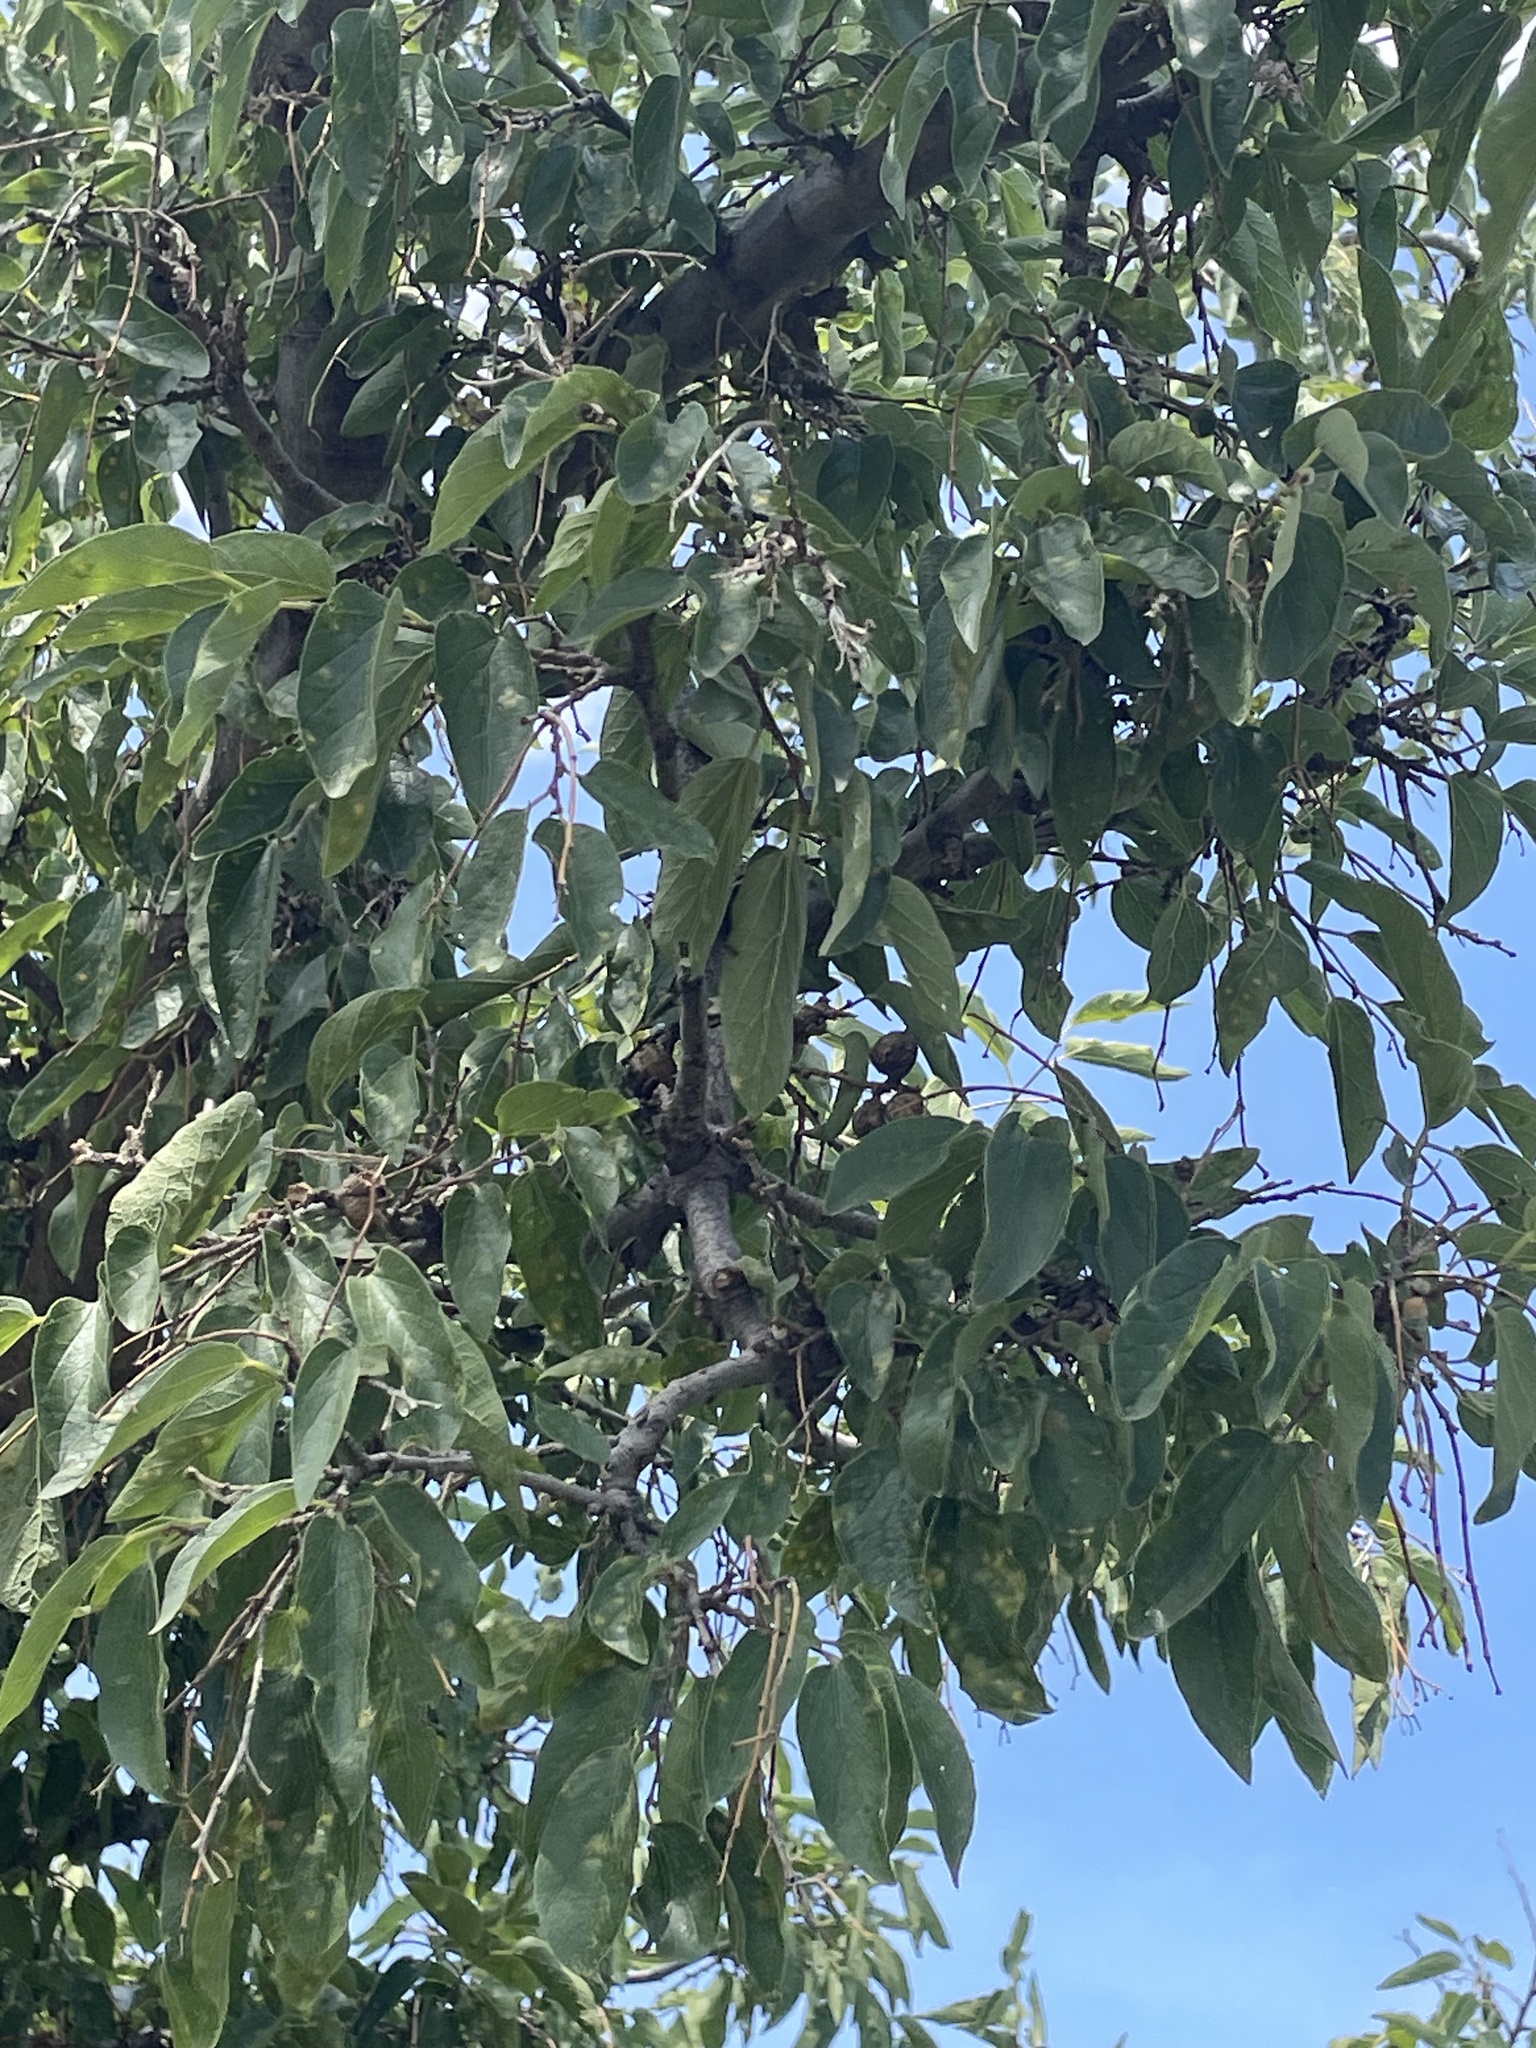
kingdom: Plantae
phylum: Tracheophyta
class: Magnoliopsida
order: Rosales
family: Cannabaceae
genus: Celtis
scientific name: Celtis reticulata
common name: Netleaf hackberry
